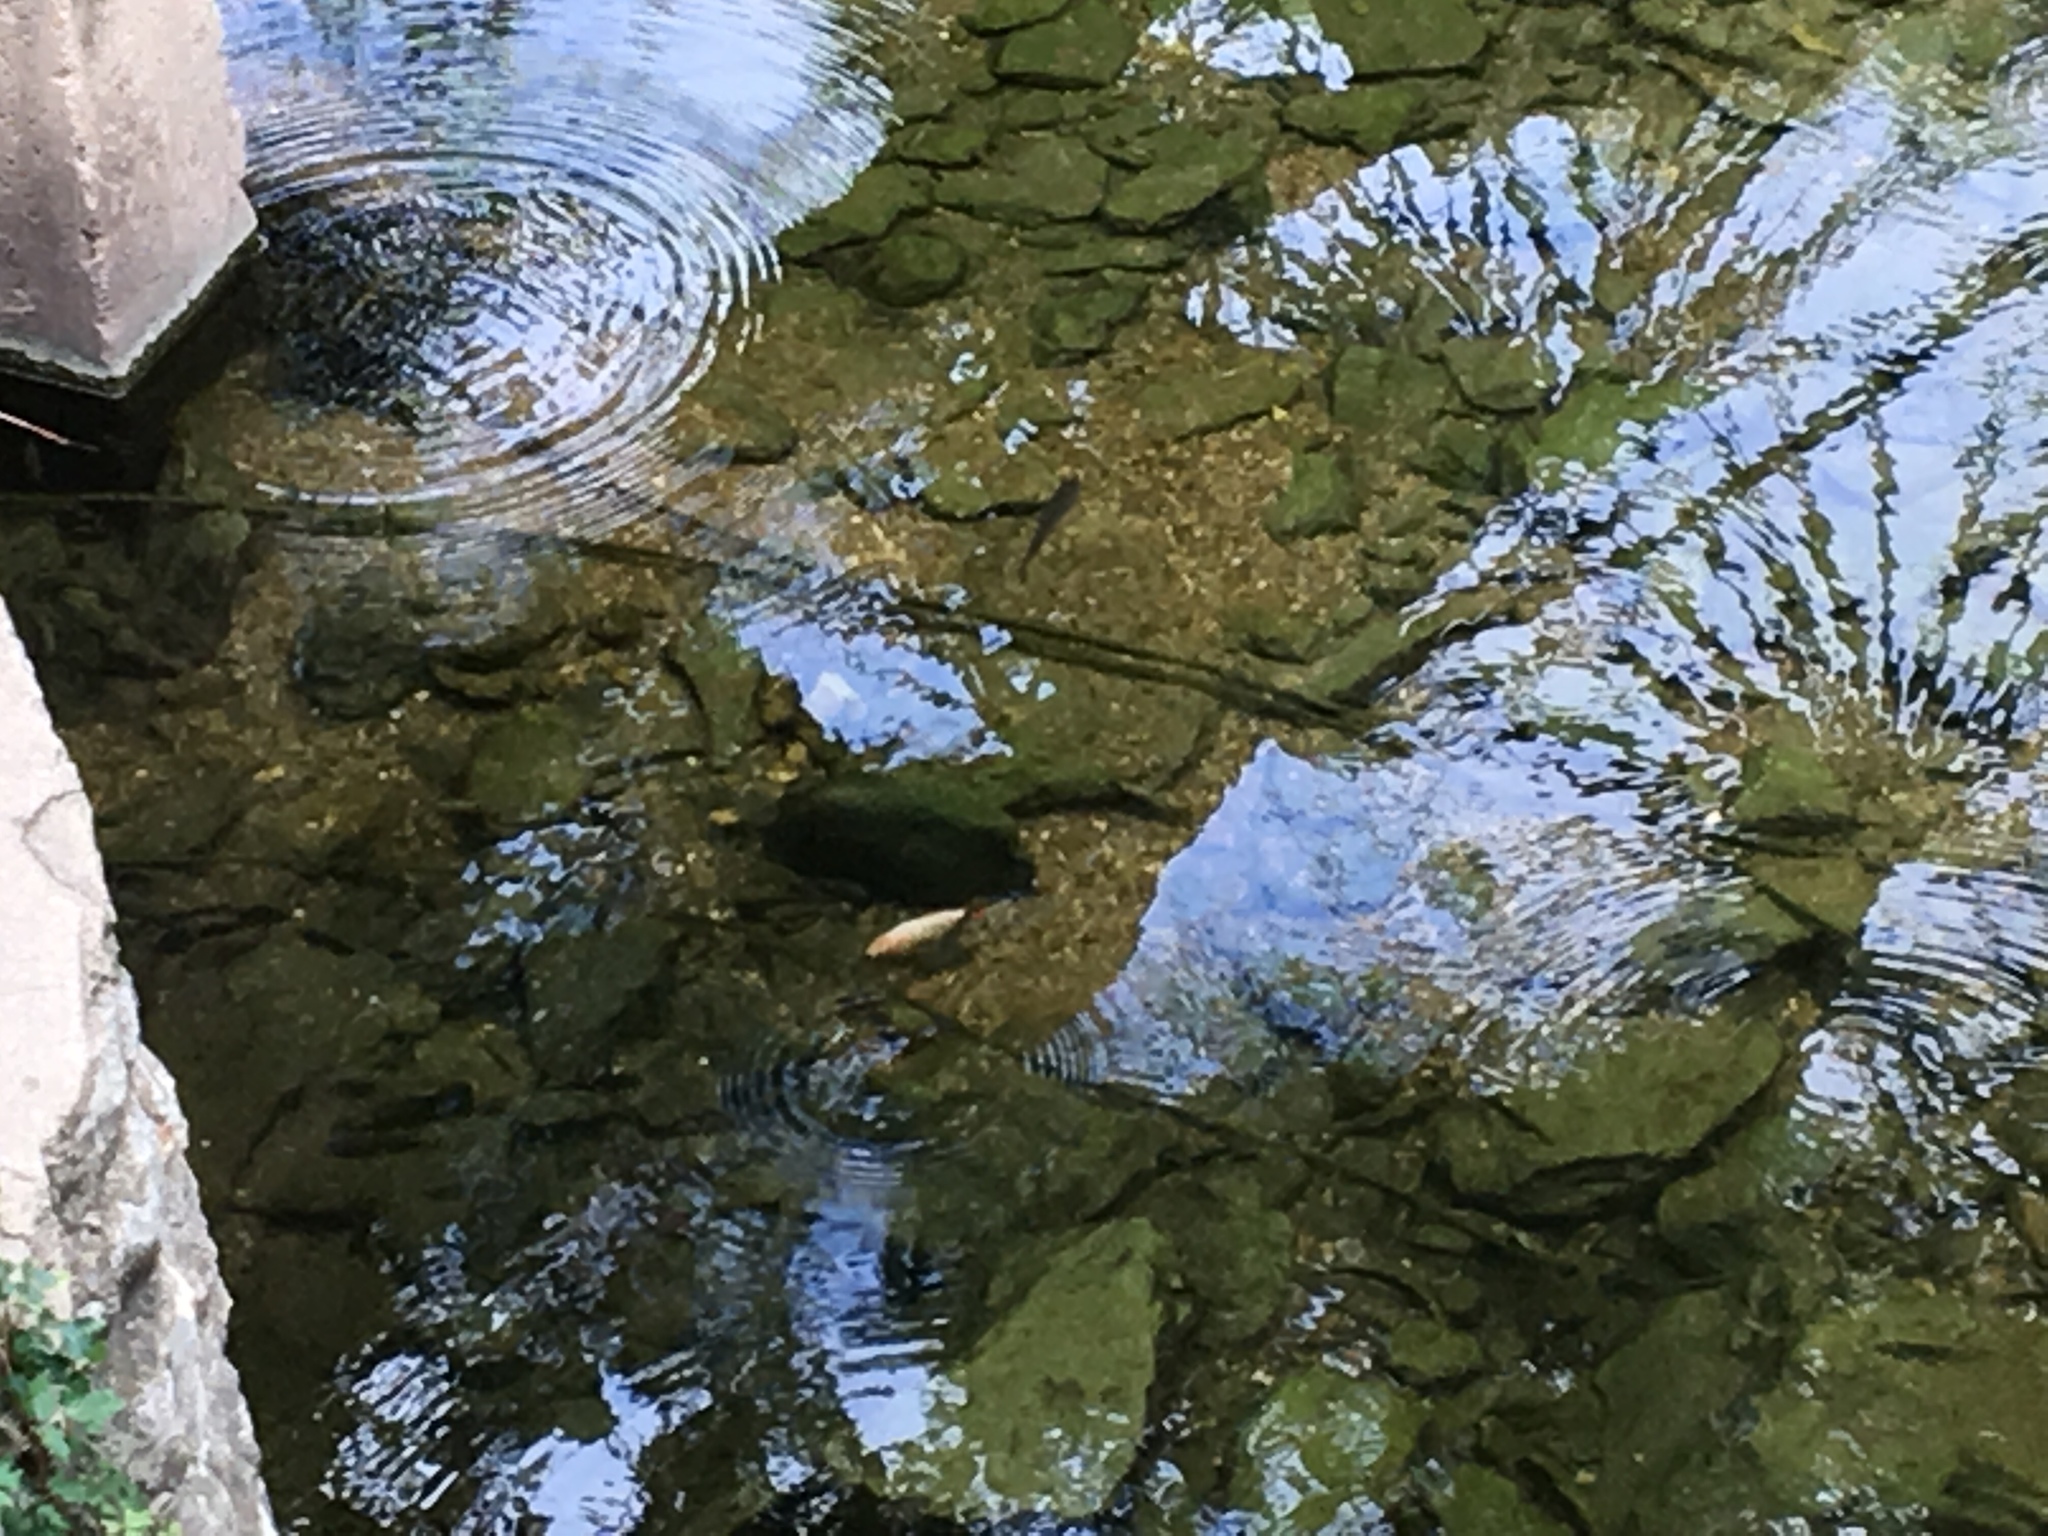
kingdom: Animalia
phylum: Chordata
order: Cypriniformes
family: Cyprinidae
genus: Carassius
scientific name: Carassius auratus
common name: Goldfish
